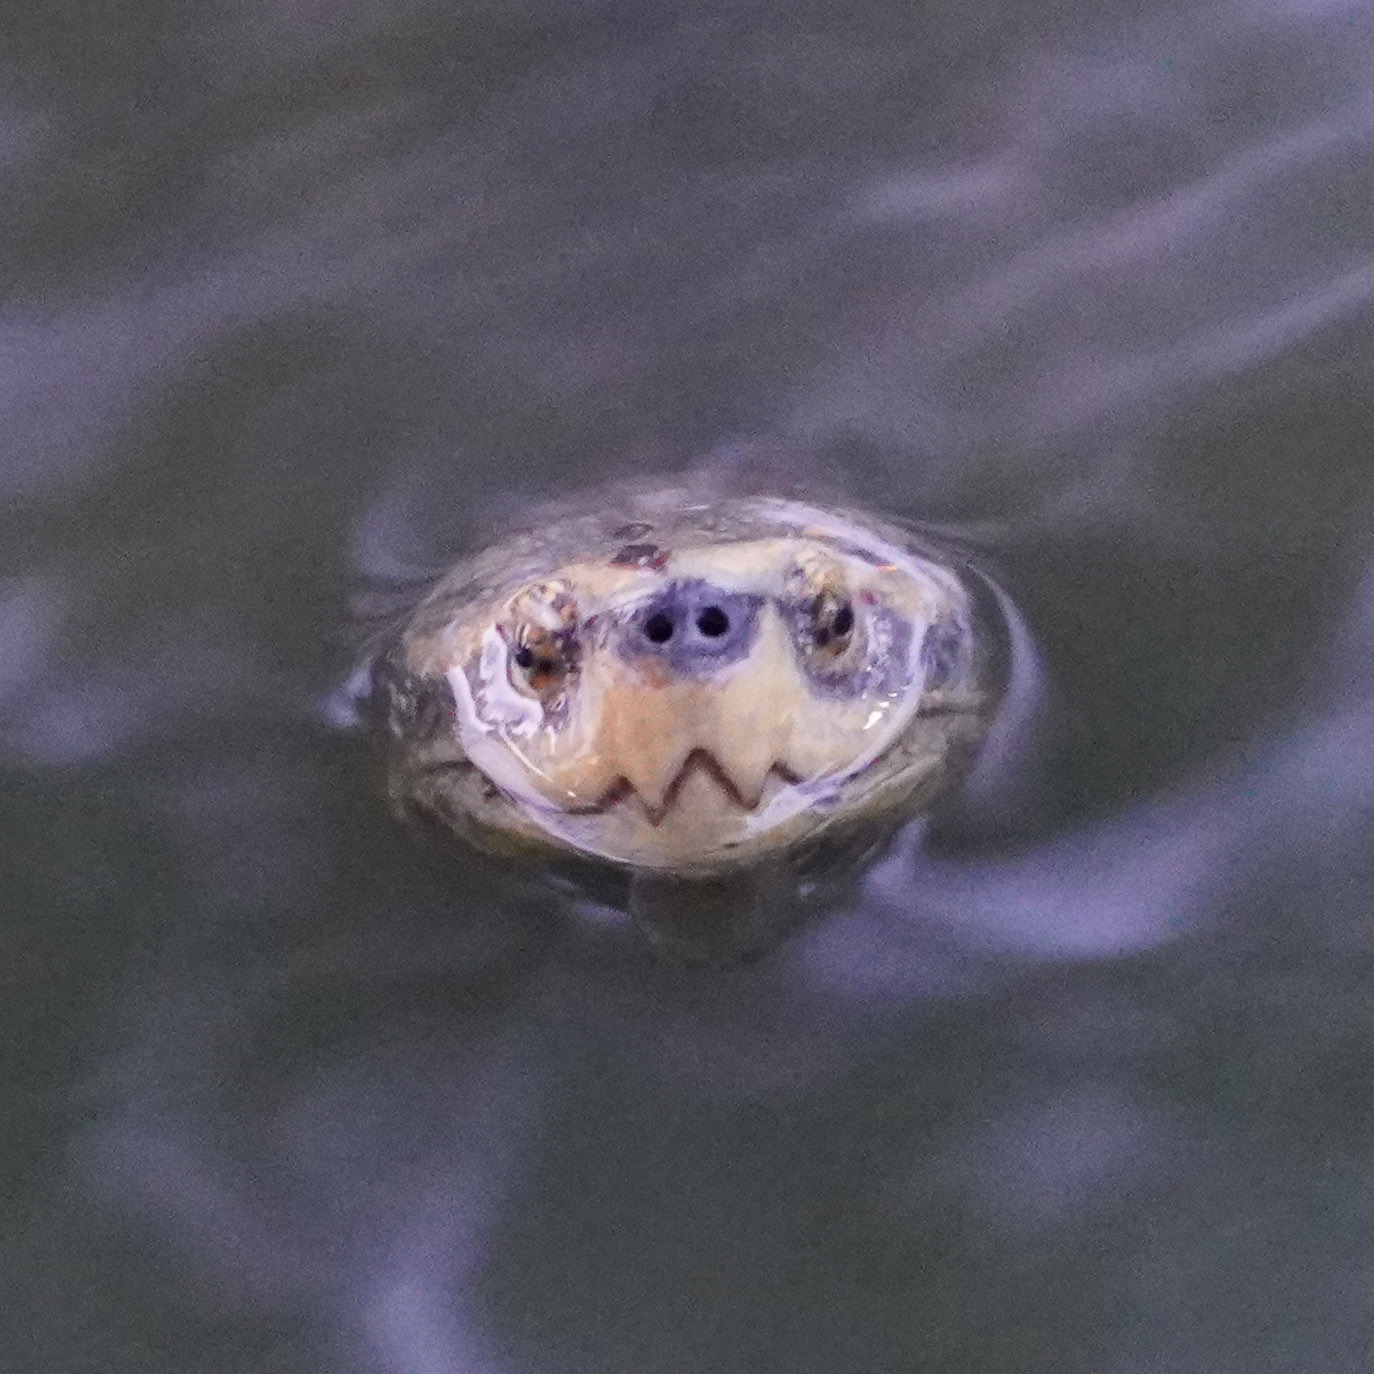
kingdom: Animalia
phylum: Chordata
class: Testudines
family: Geoemydidae
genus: Heosemys
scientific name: Heosemys annandalii
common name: Yellow-headed temple turtle
